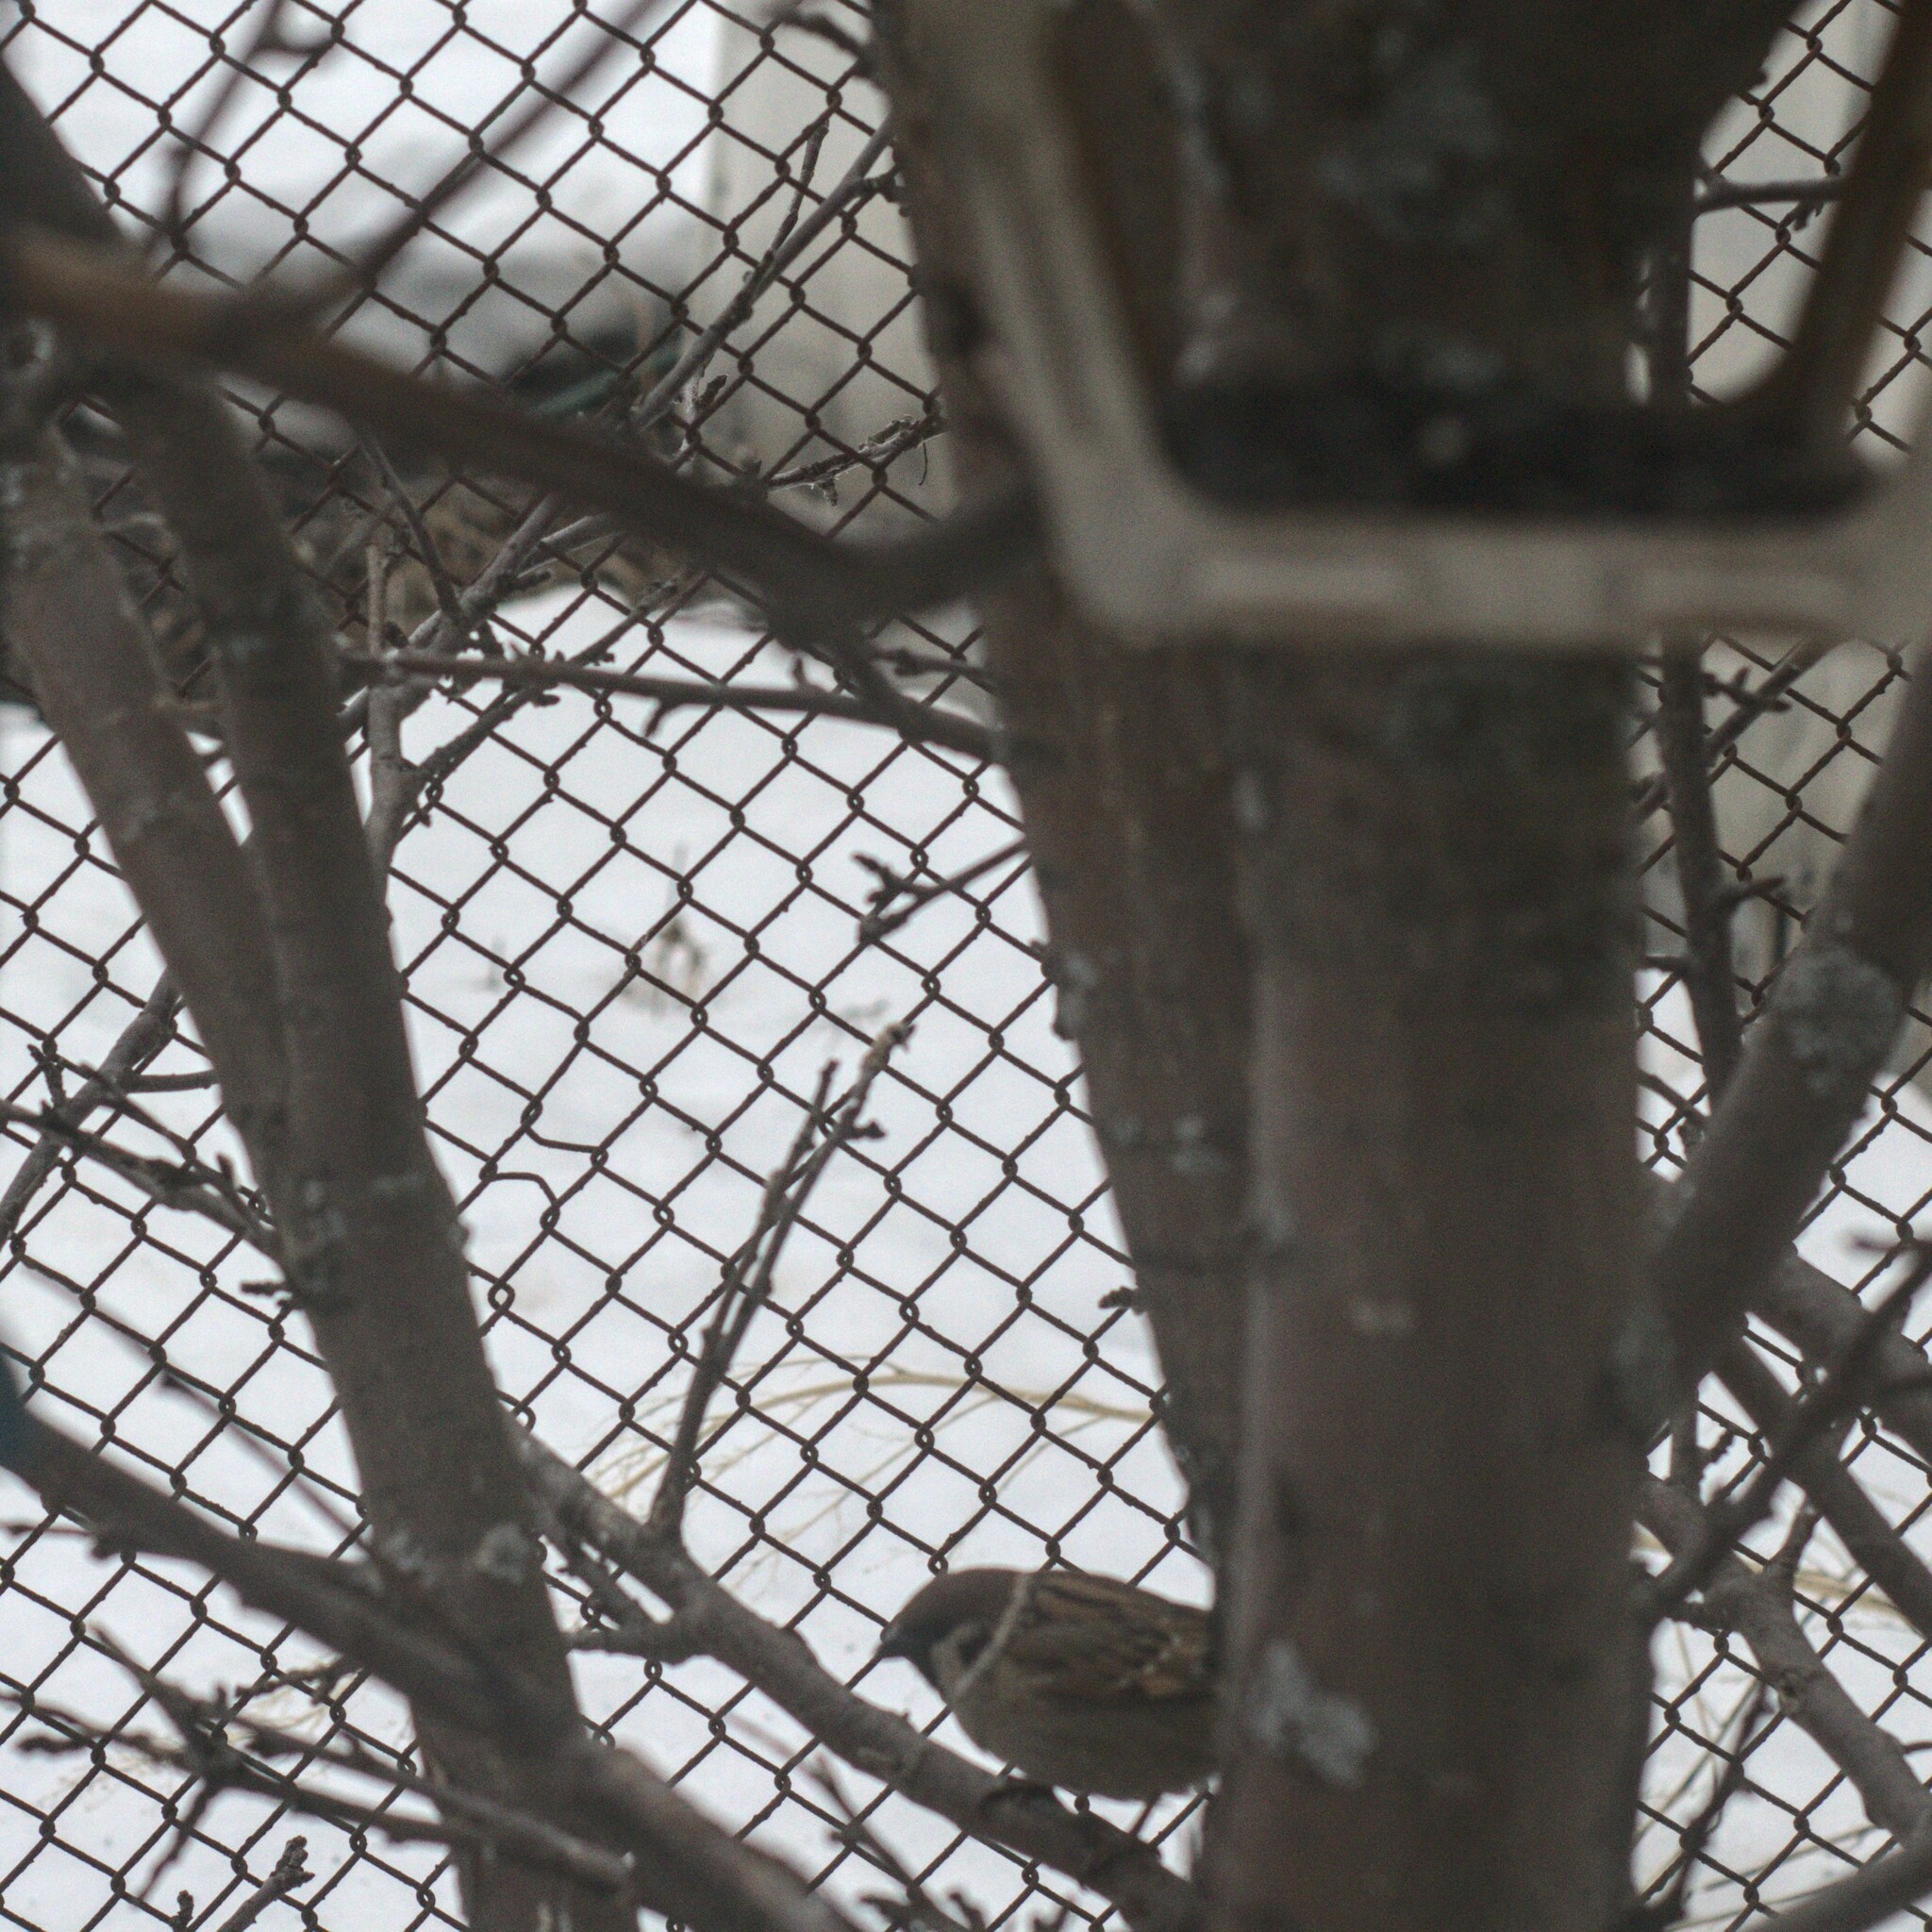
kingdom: Animalia
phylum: Chordata
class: Aves
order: Passeriformes
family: Passeridae
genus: Passer
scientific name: Passer montanus
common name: Eurasian tree sparrow
